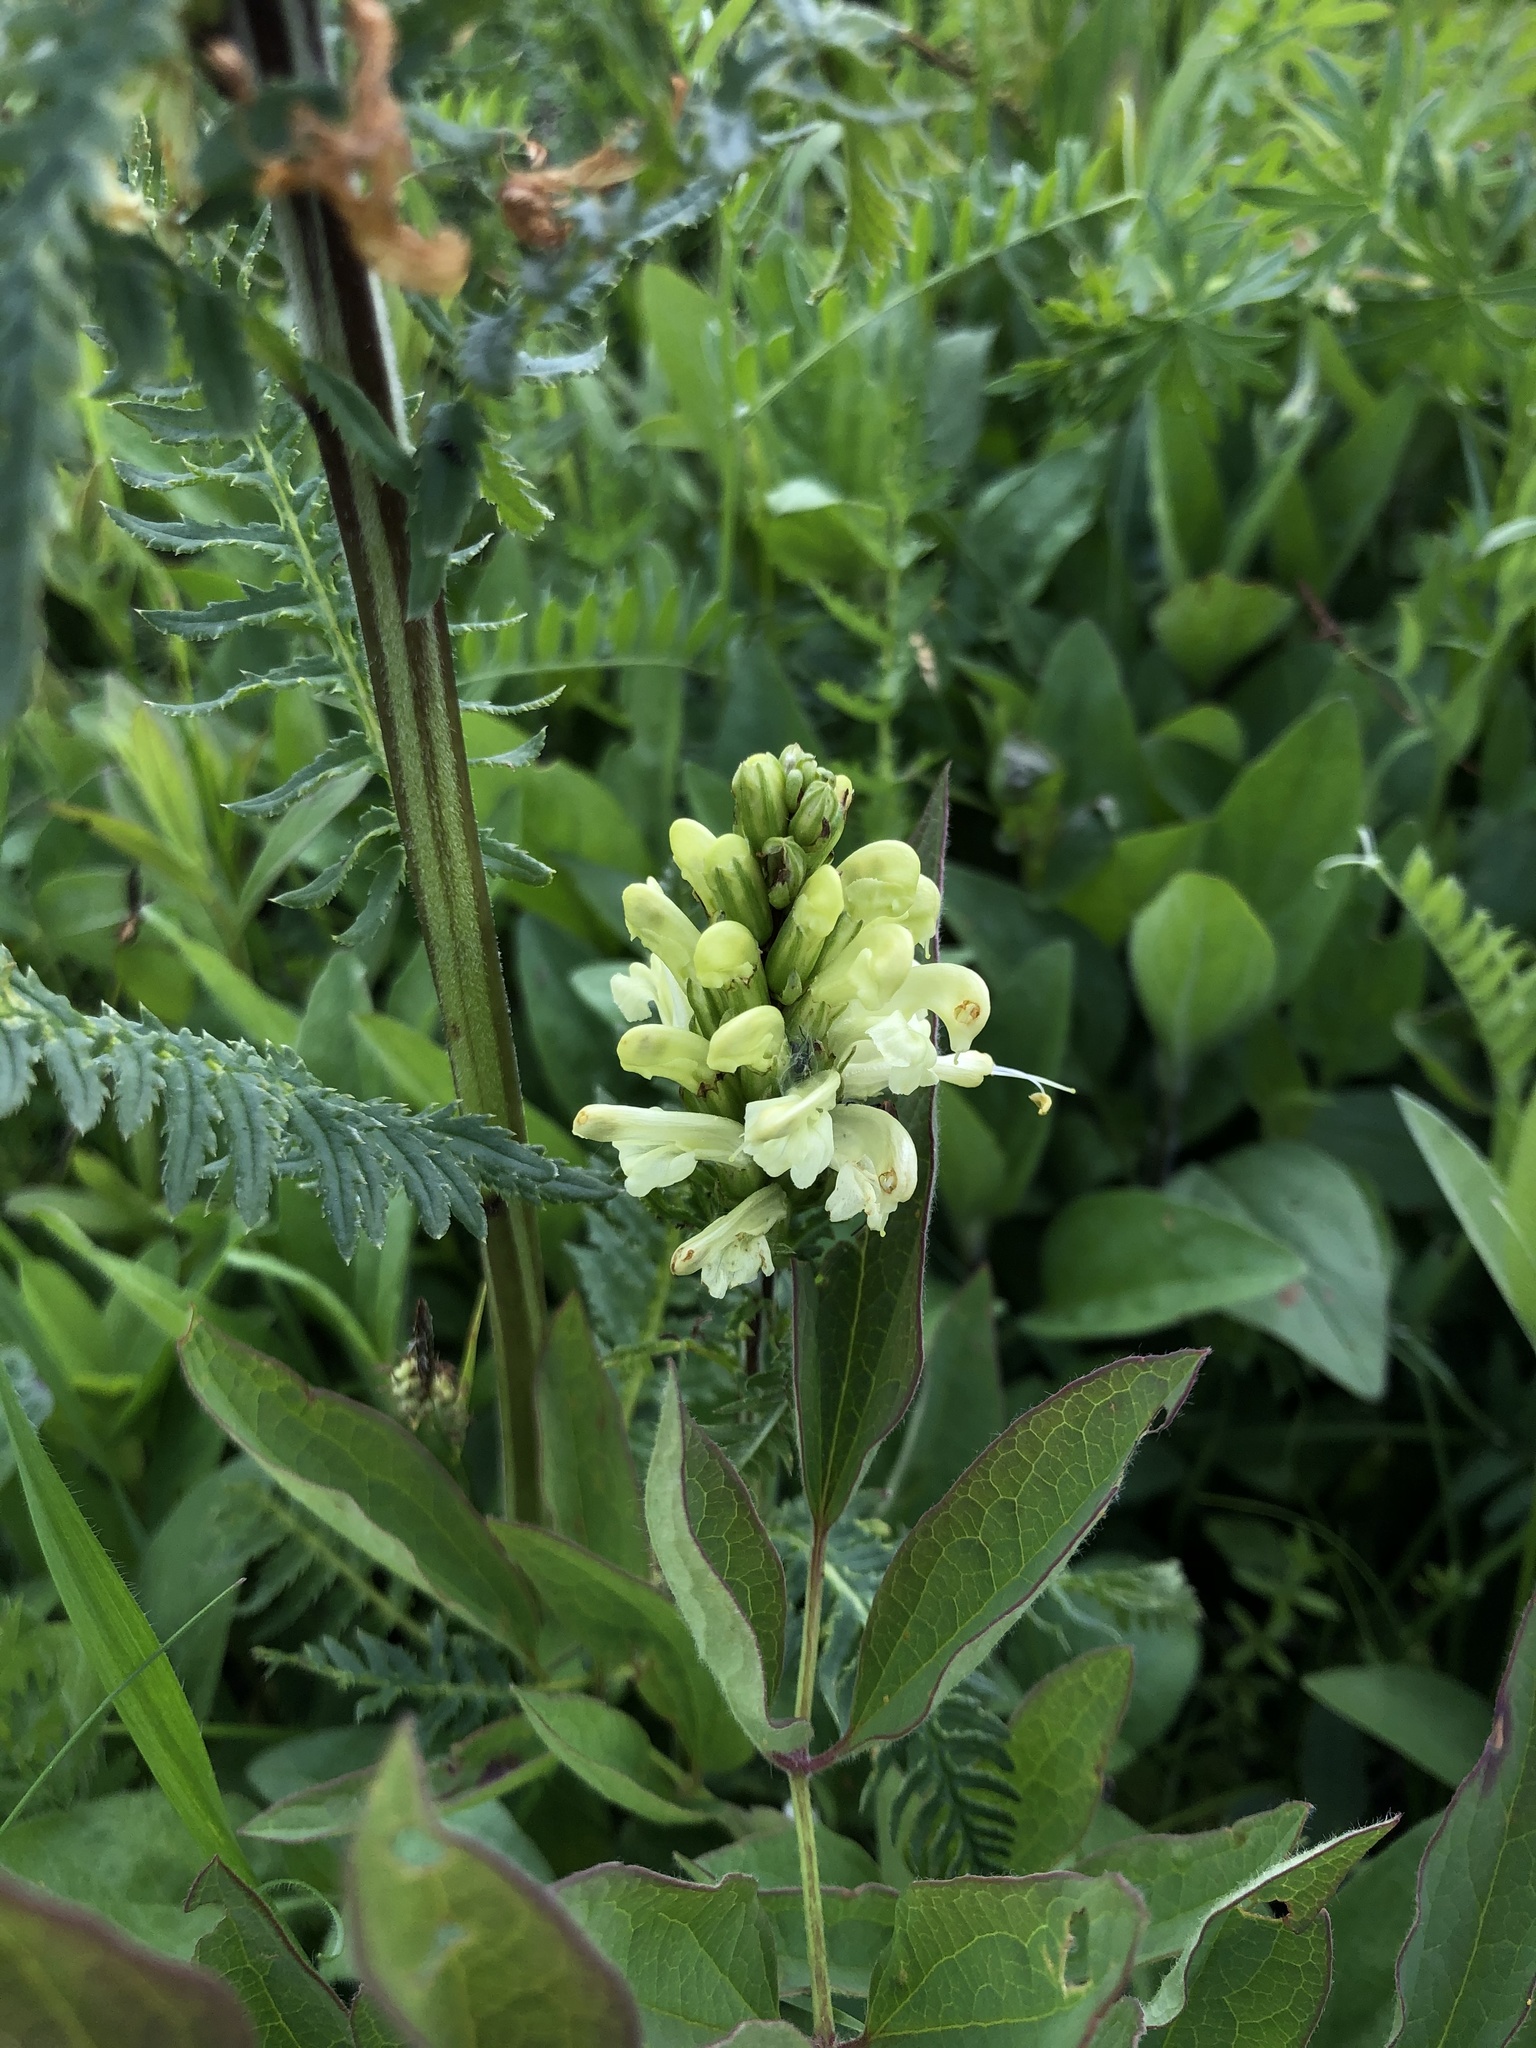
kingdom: Plantae
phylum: Tracheophyta
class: Magnoliopsida
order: Lamiales
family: Orobanchaceae
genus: Pedicularis
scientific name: Pedicularis comosa
